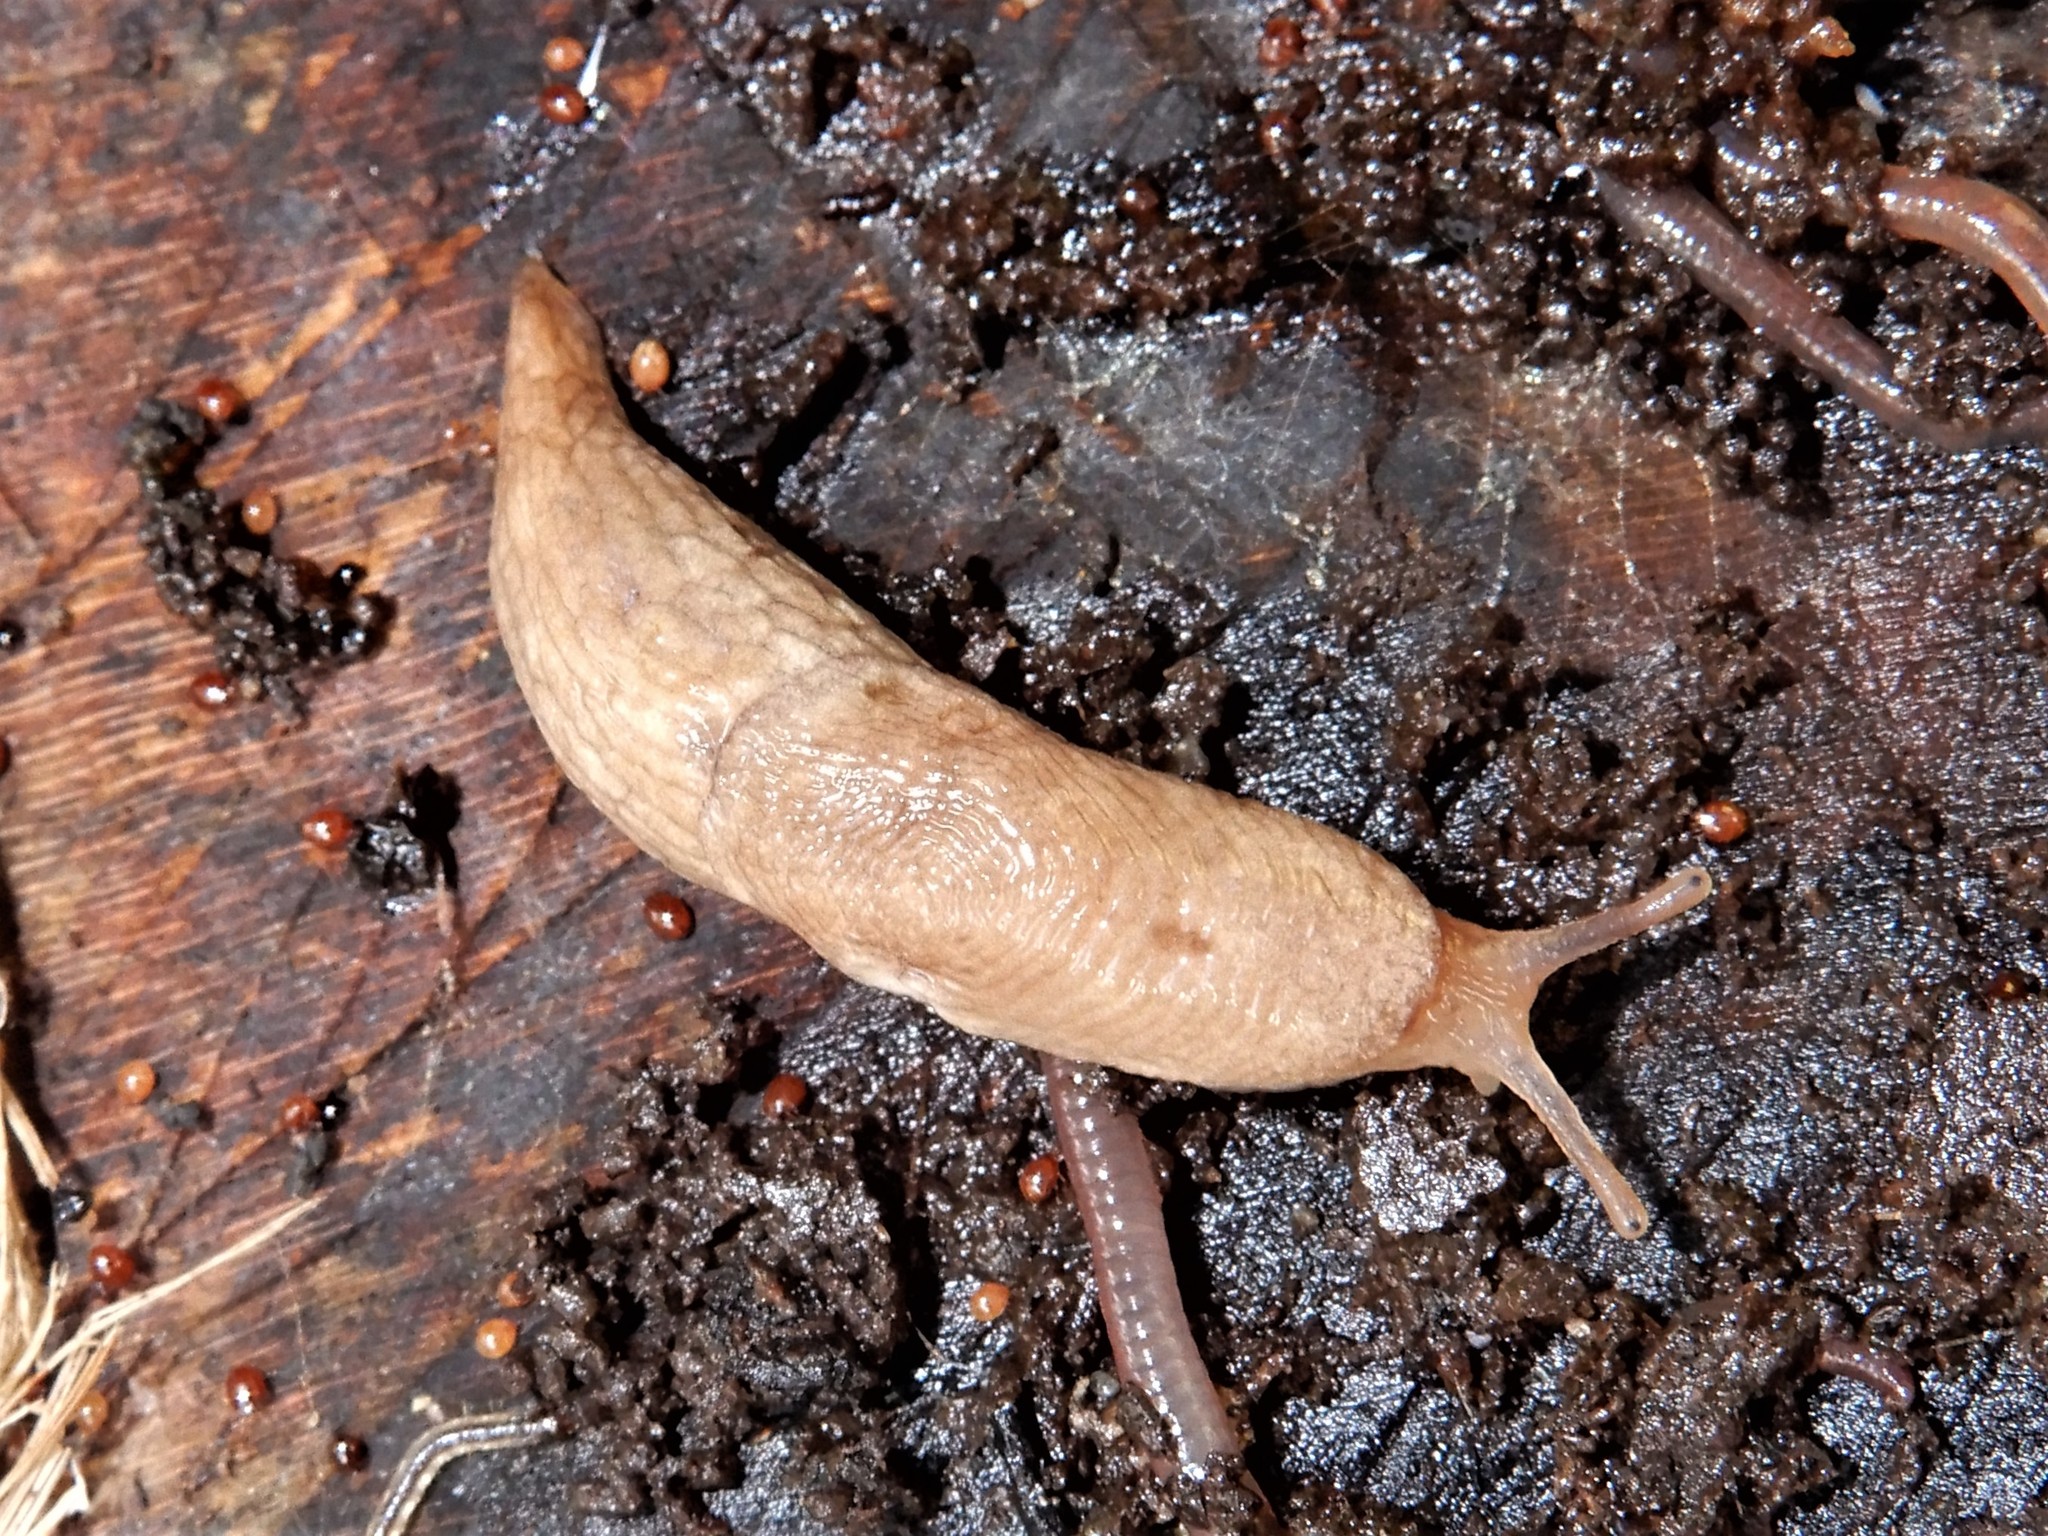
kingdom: Animalia
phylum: Mollusca
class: Gastropoda
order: Stylommatophora
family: Agriolimacidae
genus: Deroceras
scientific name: Deroceras reticulatum
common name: Gray field slug
